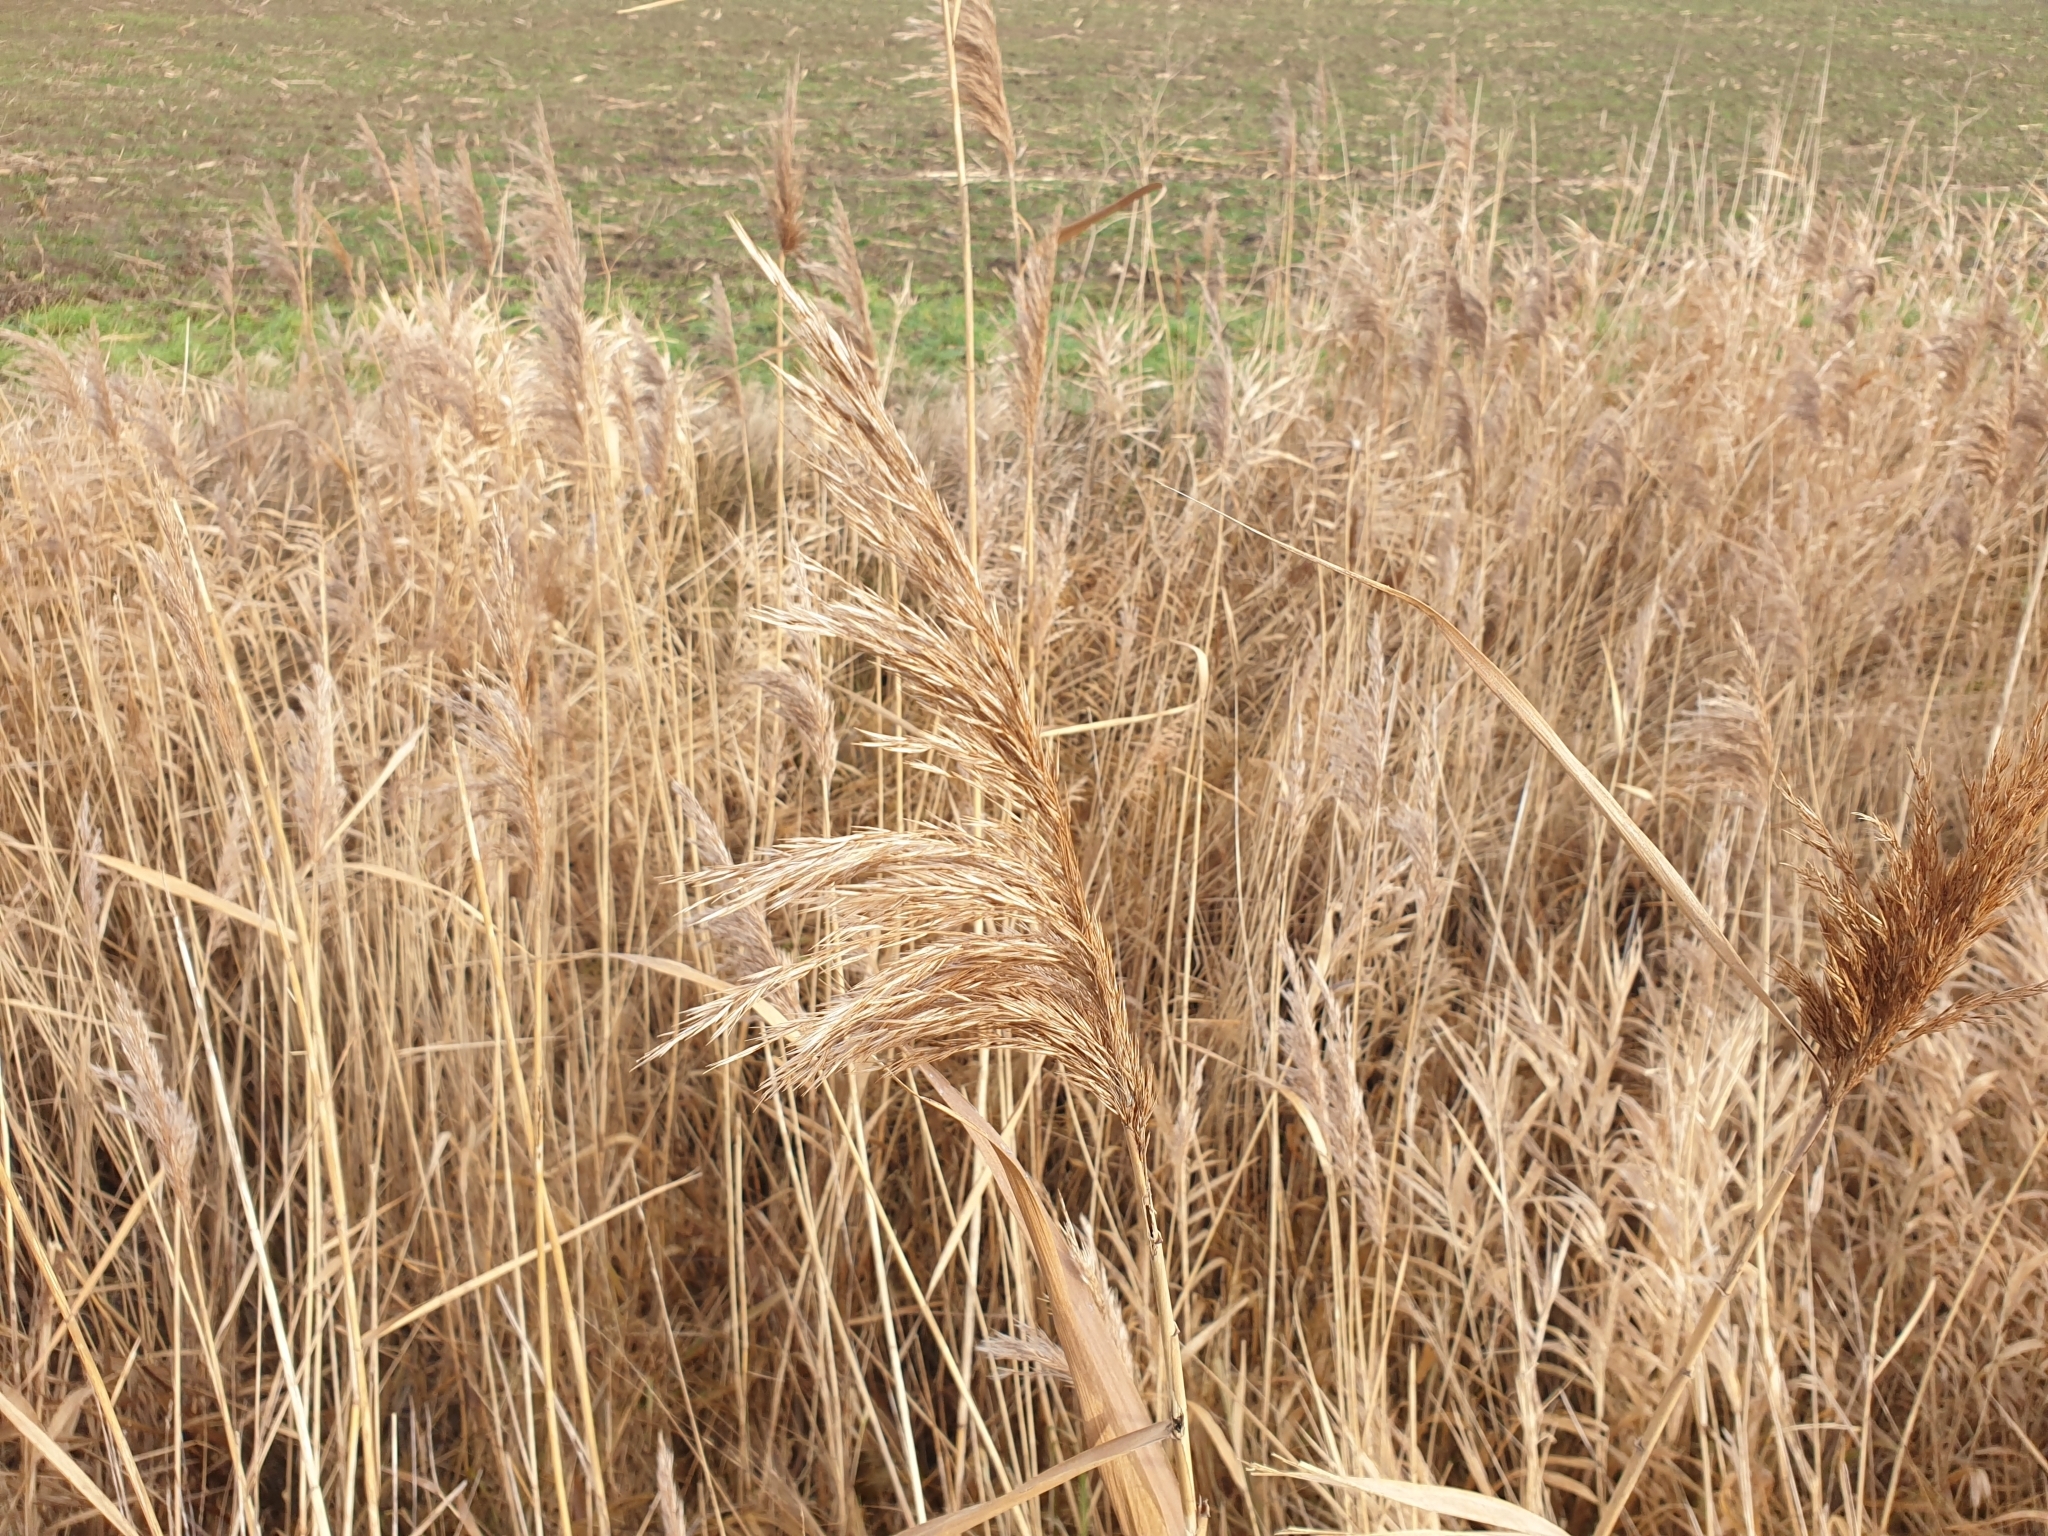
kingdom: Plantae
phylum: Tracheophyta
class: Liliopsida
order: Poales
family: Poaceae
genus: Phragmites
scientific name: Phragmites australis
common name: Common reed
